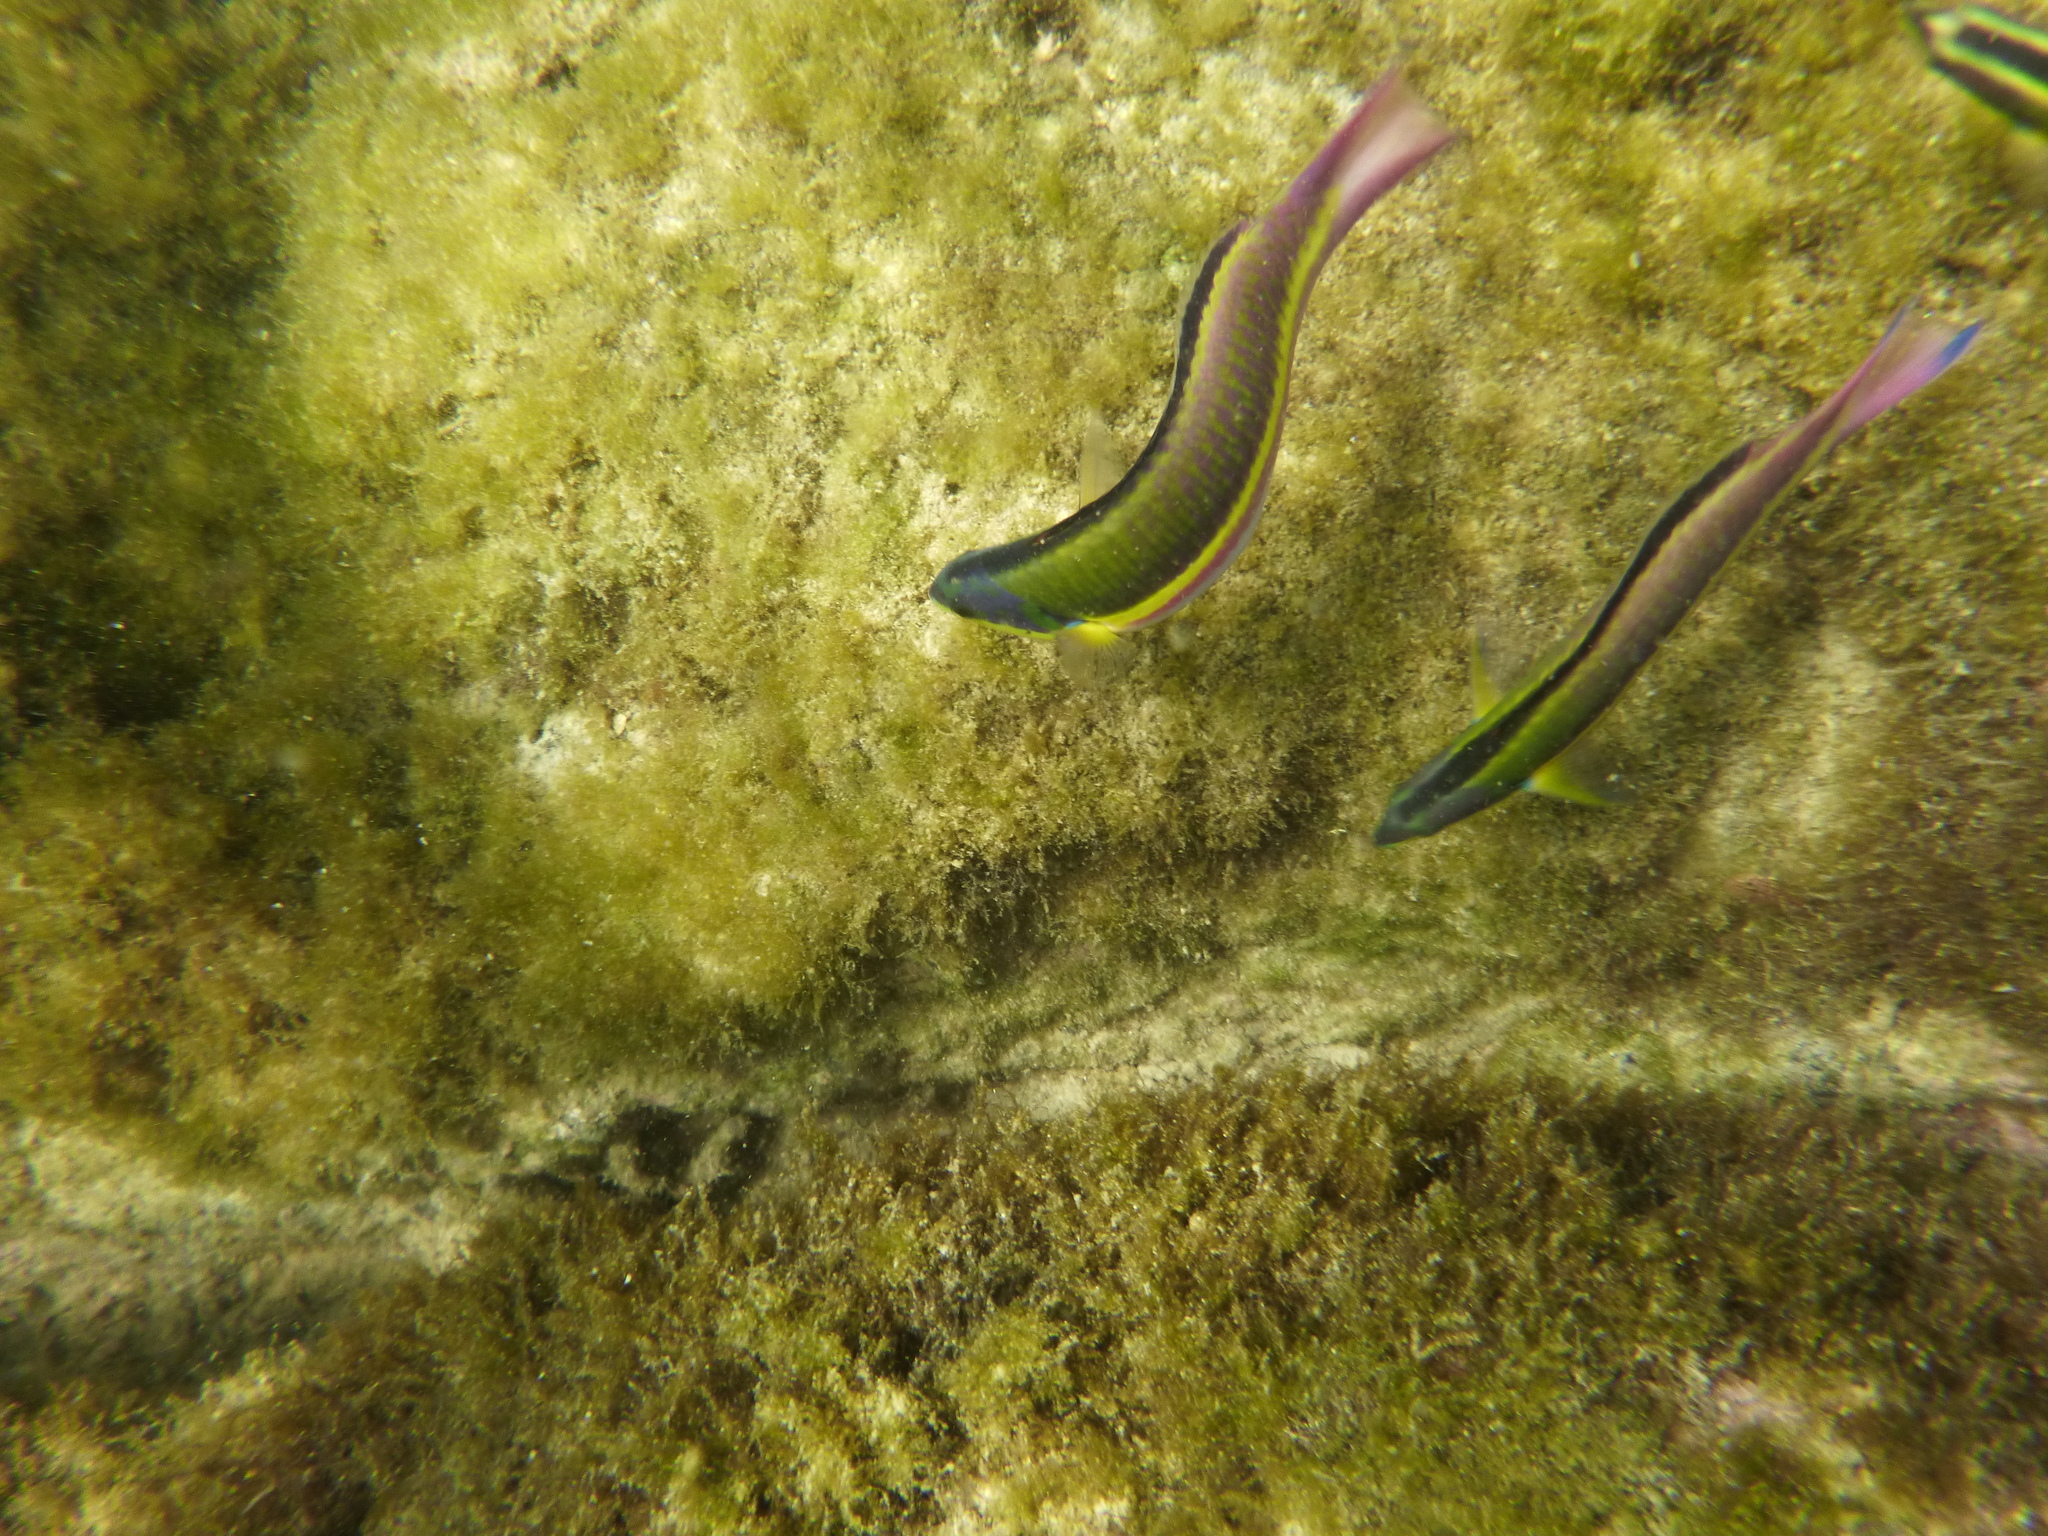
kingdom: Animalia
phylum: Chordata
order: Perciformes
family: Labridae
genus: Thalassoma
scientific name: Thalassoma lucasanum
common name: Cortez rainbow wrasse
